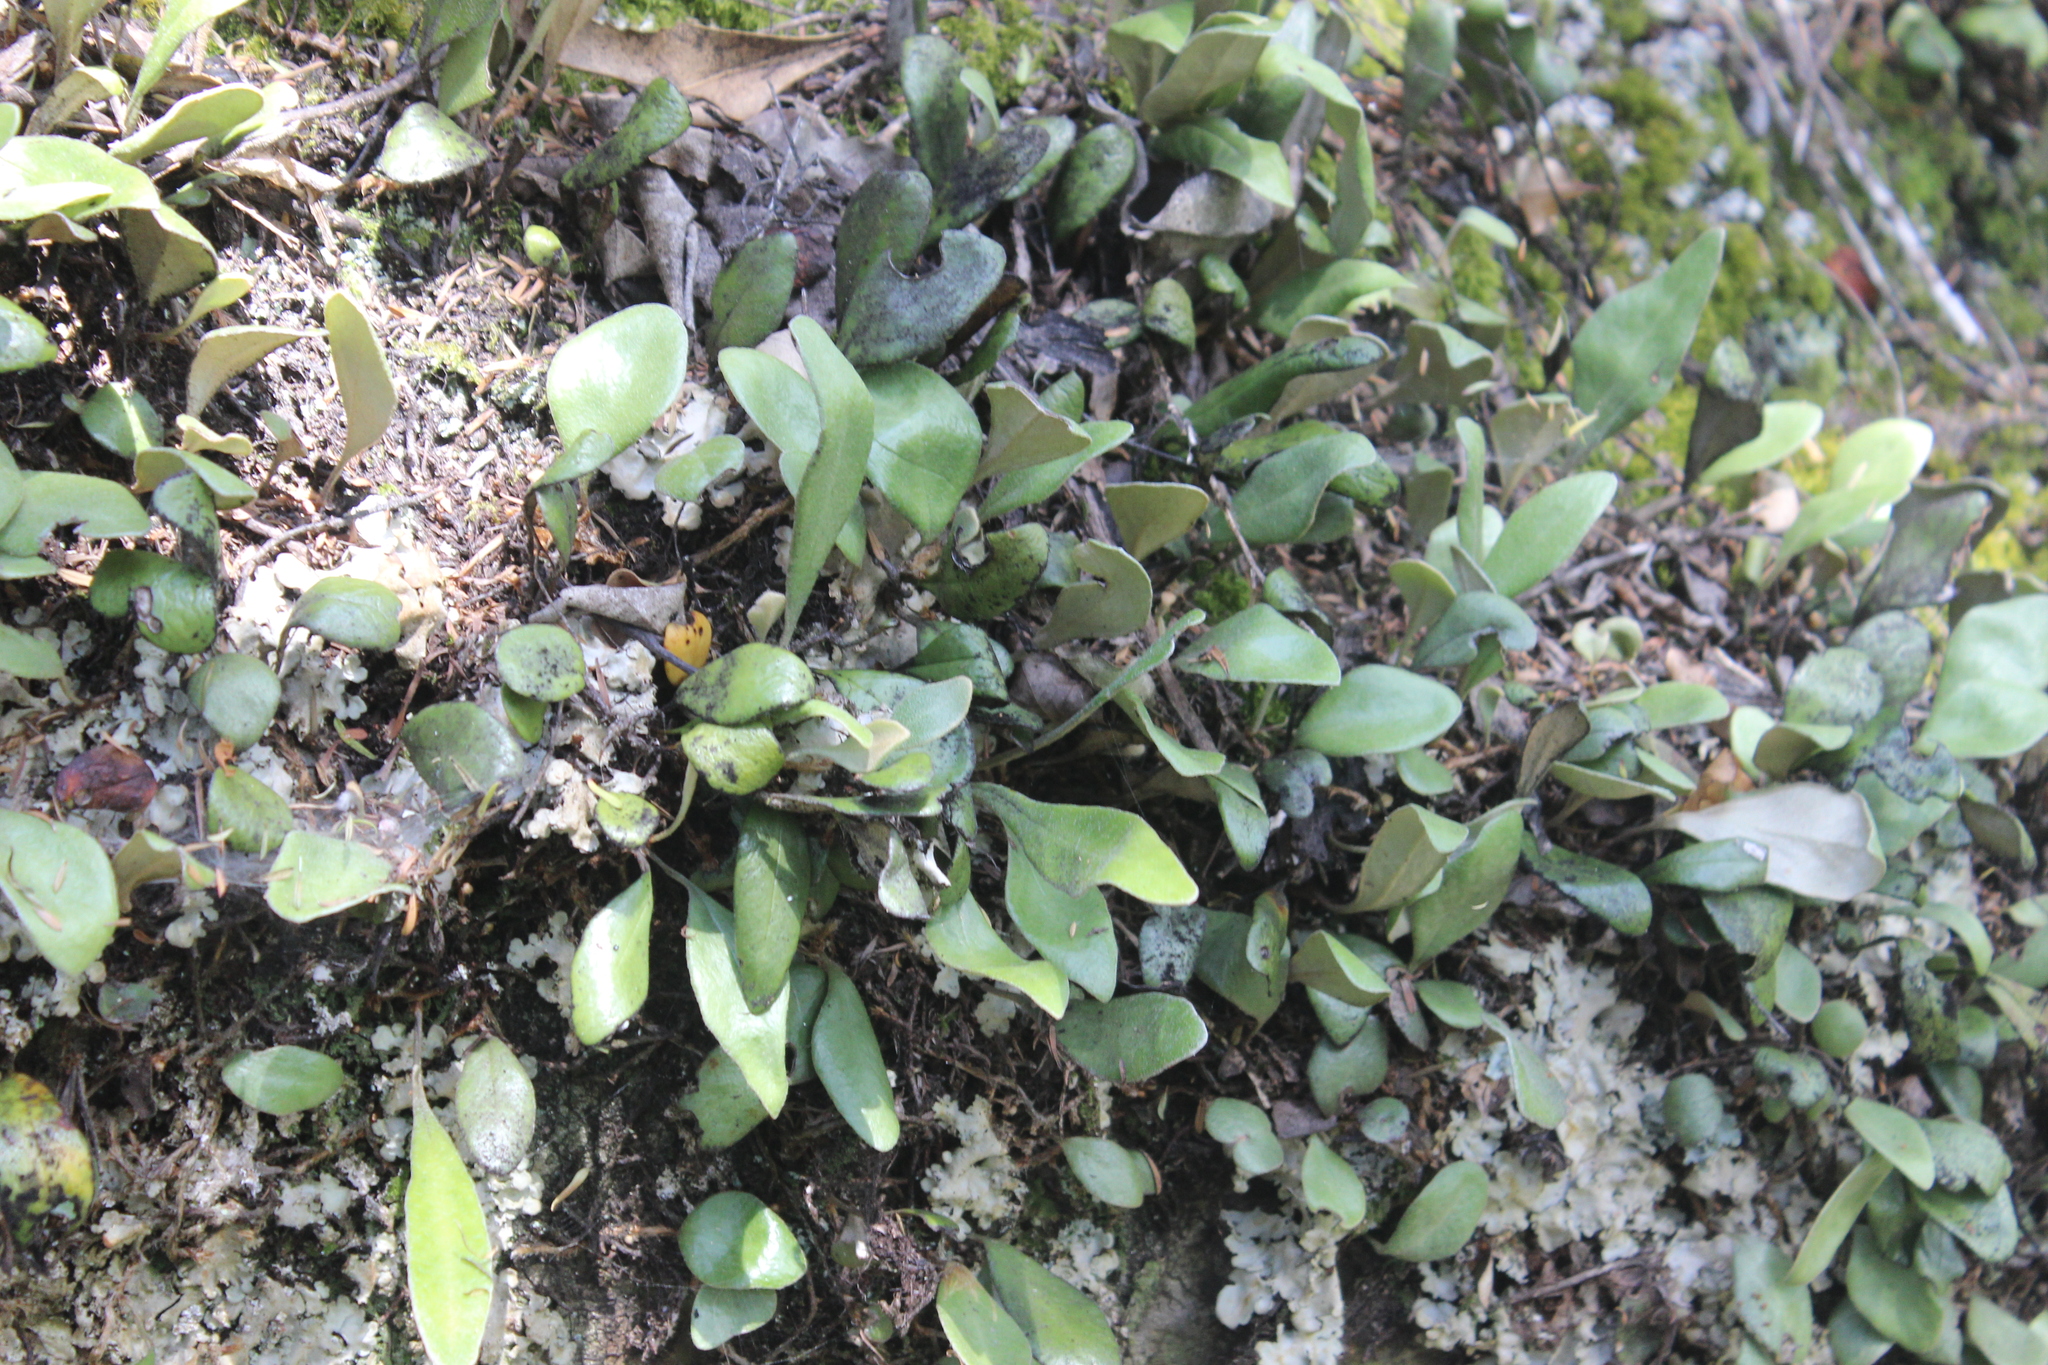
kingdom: Plantae
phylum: Tracheophyta
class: Polypodiopsida
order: Polypodiales
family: Polypodiaceae
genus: Pyrrosia
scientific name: Pyrrosia eleagnifolia
